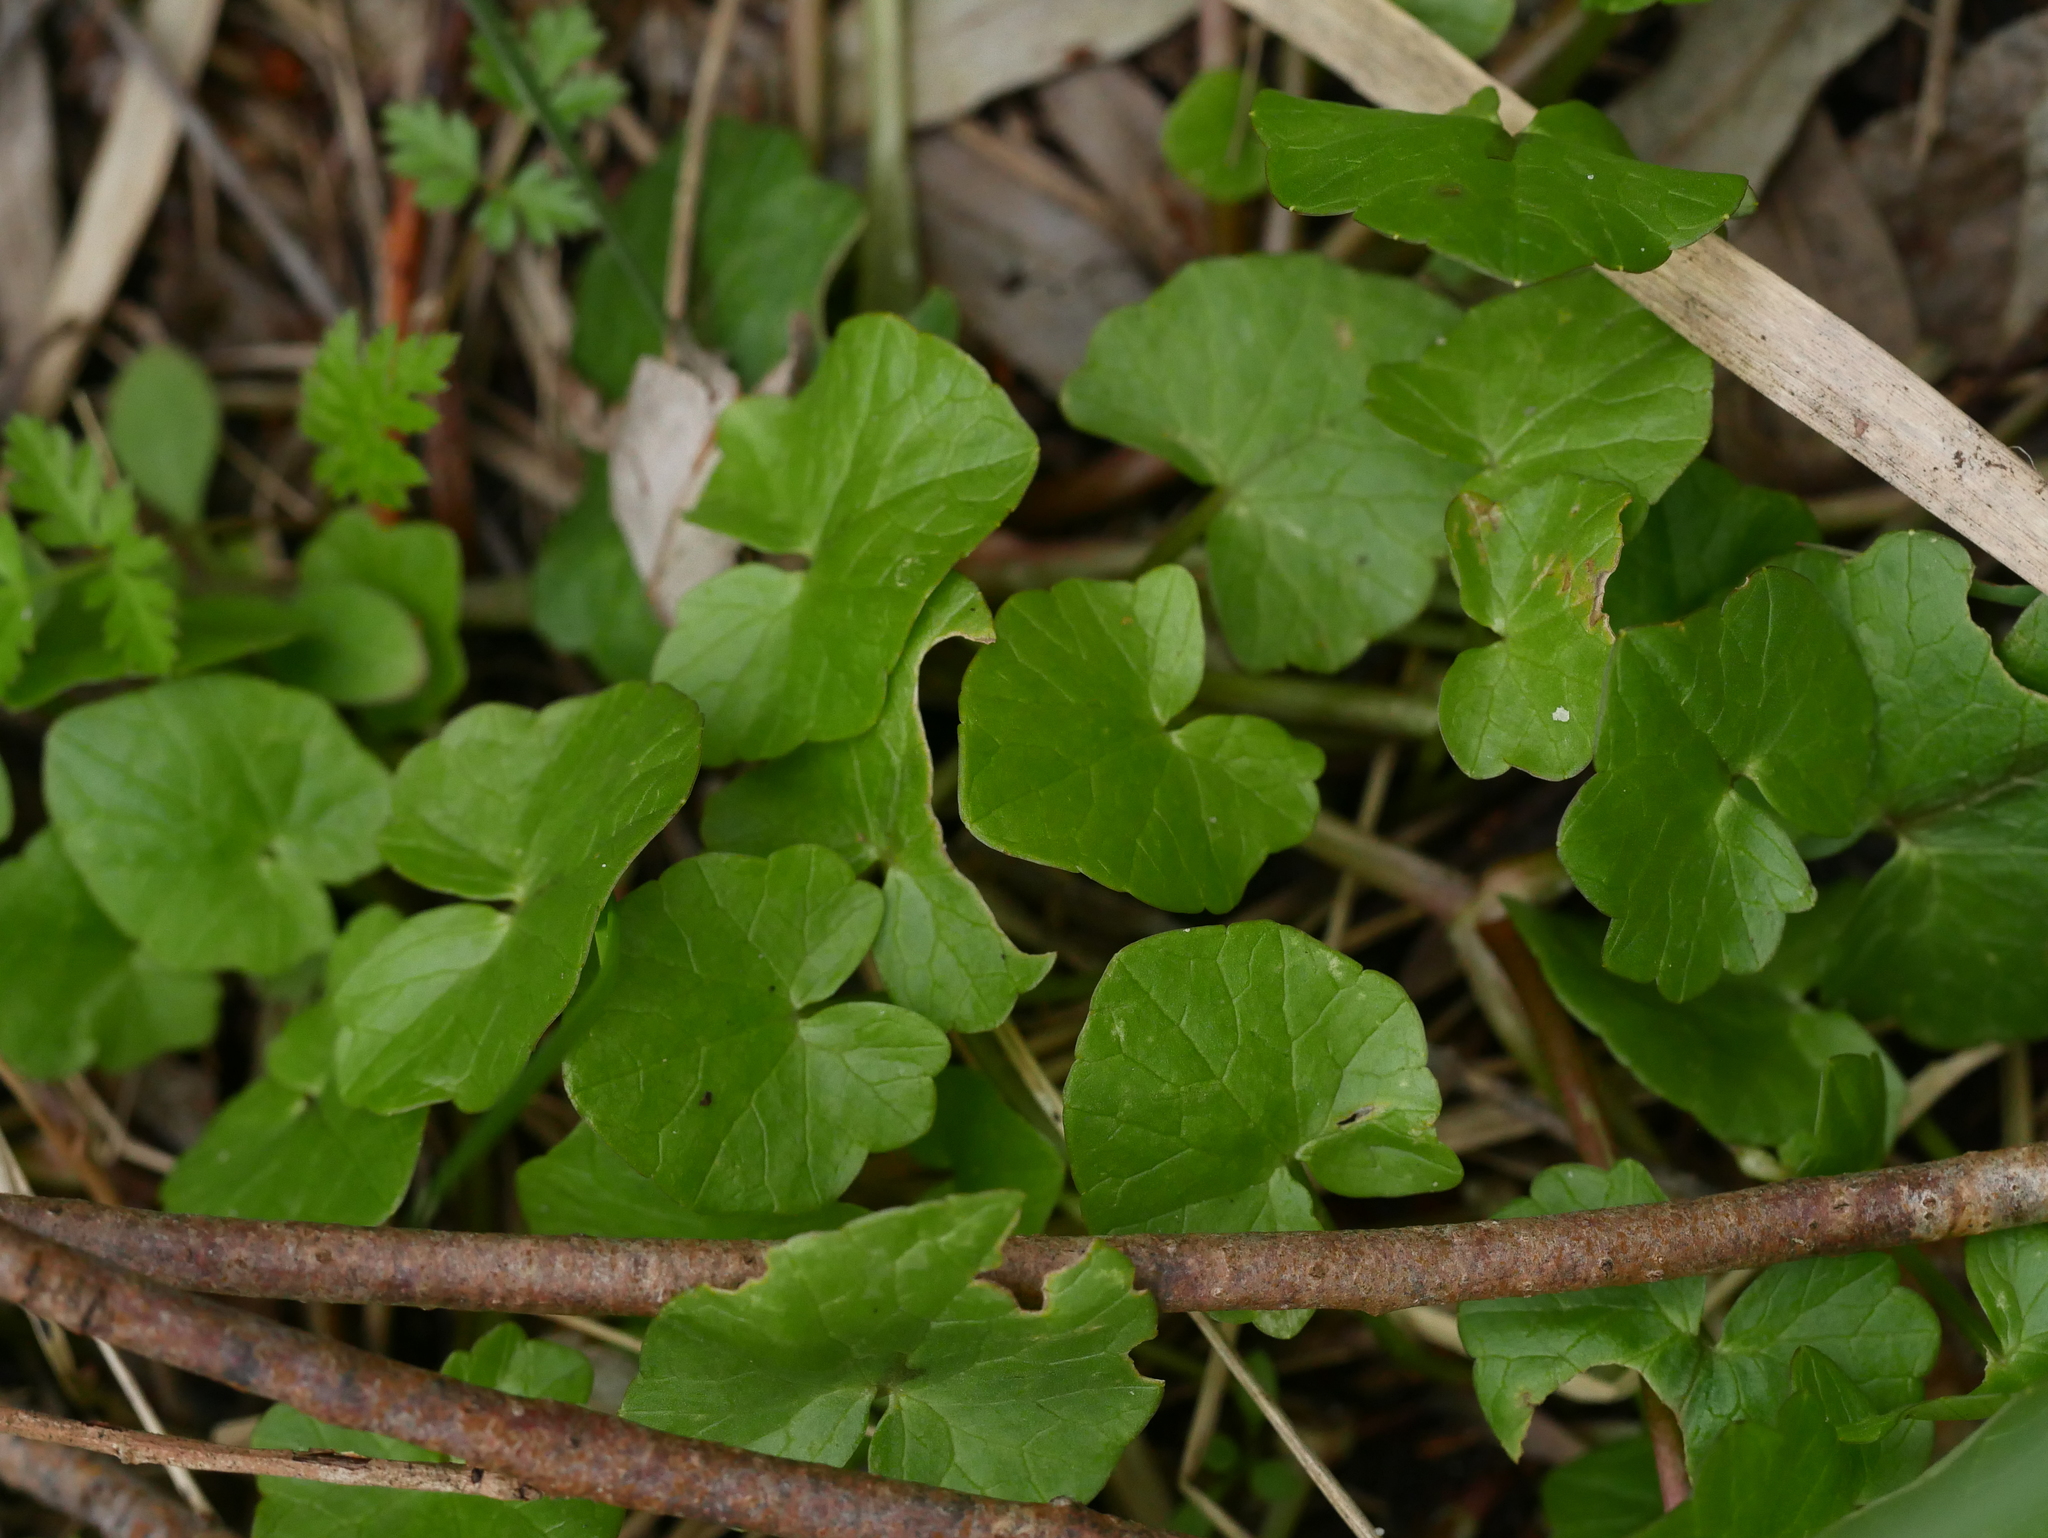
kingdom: Plantae
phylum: Tracheophyta
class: Magnoliopsida
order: Ranunculales
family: Ranunculaceae
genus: Ficaria
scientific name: Ficaria verna
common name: Lesser celandine
